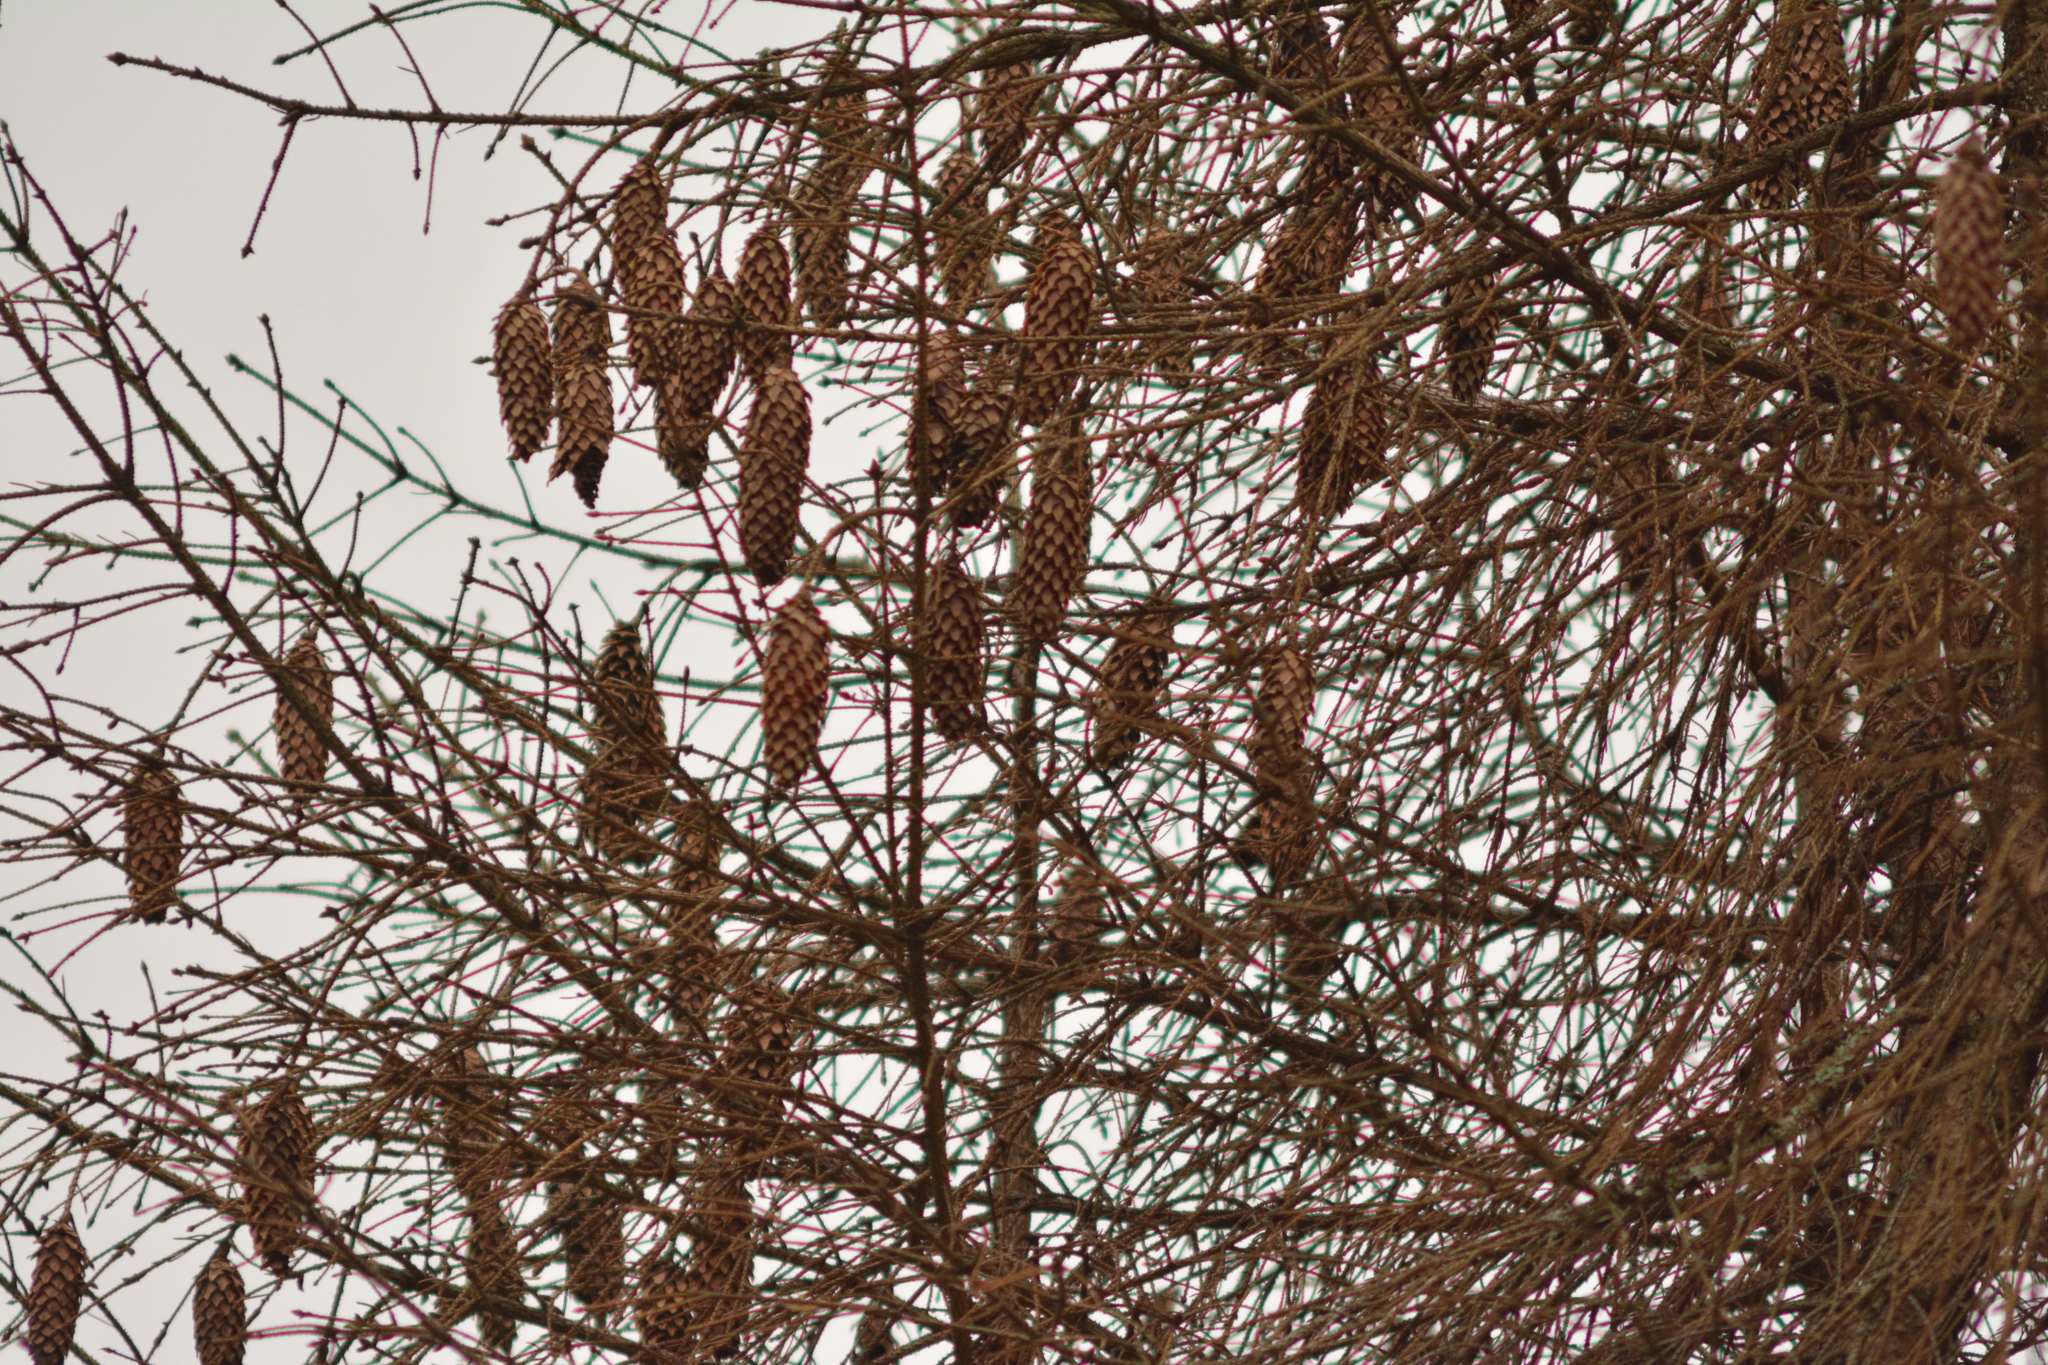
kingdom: Plantae
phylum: Tracheophyta
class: Pinopsida
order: Pinales
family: Pinaceae
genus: Picea
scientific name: Picea abies
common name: Norway spruce
